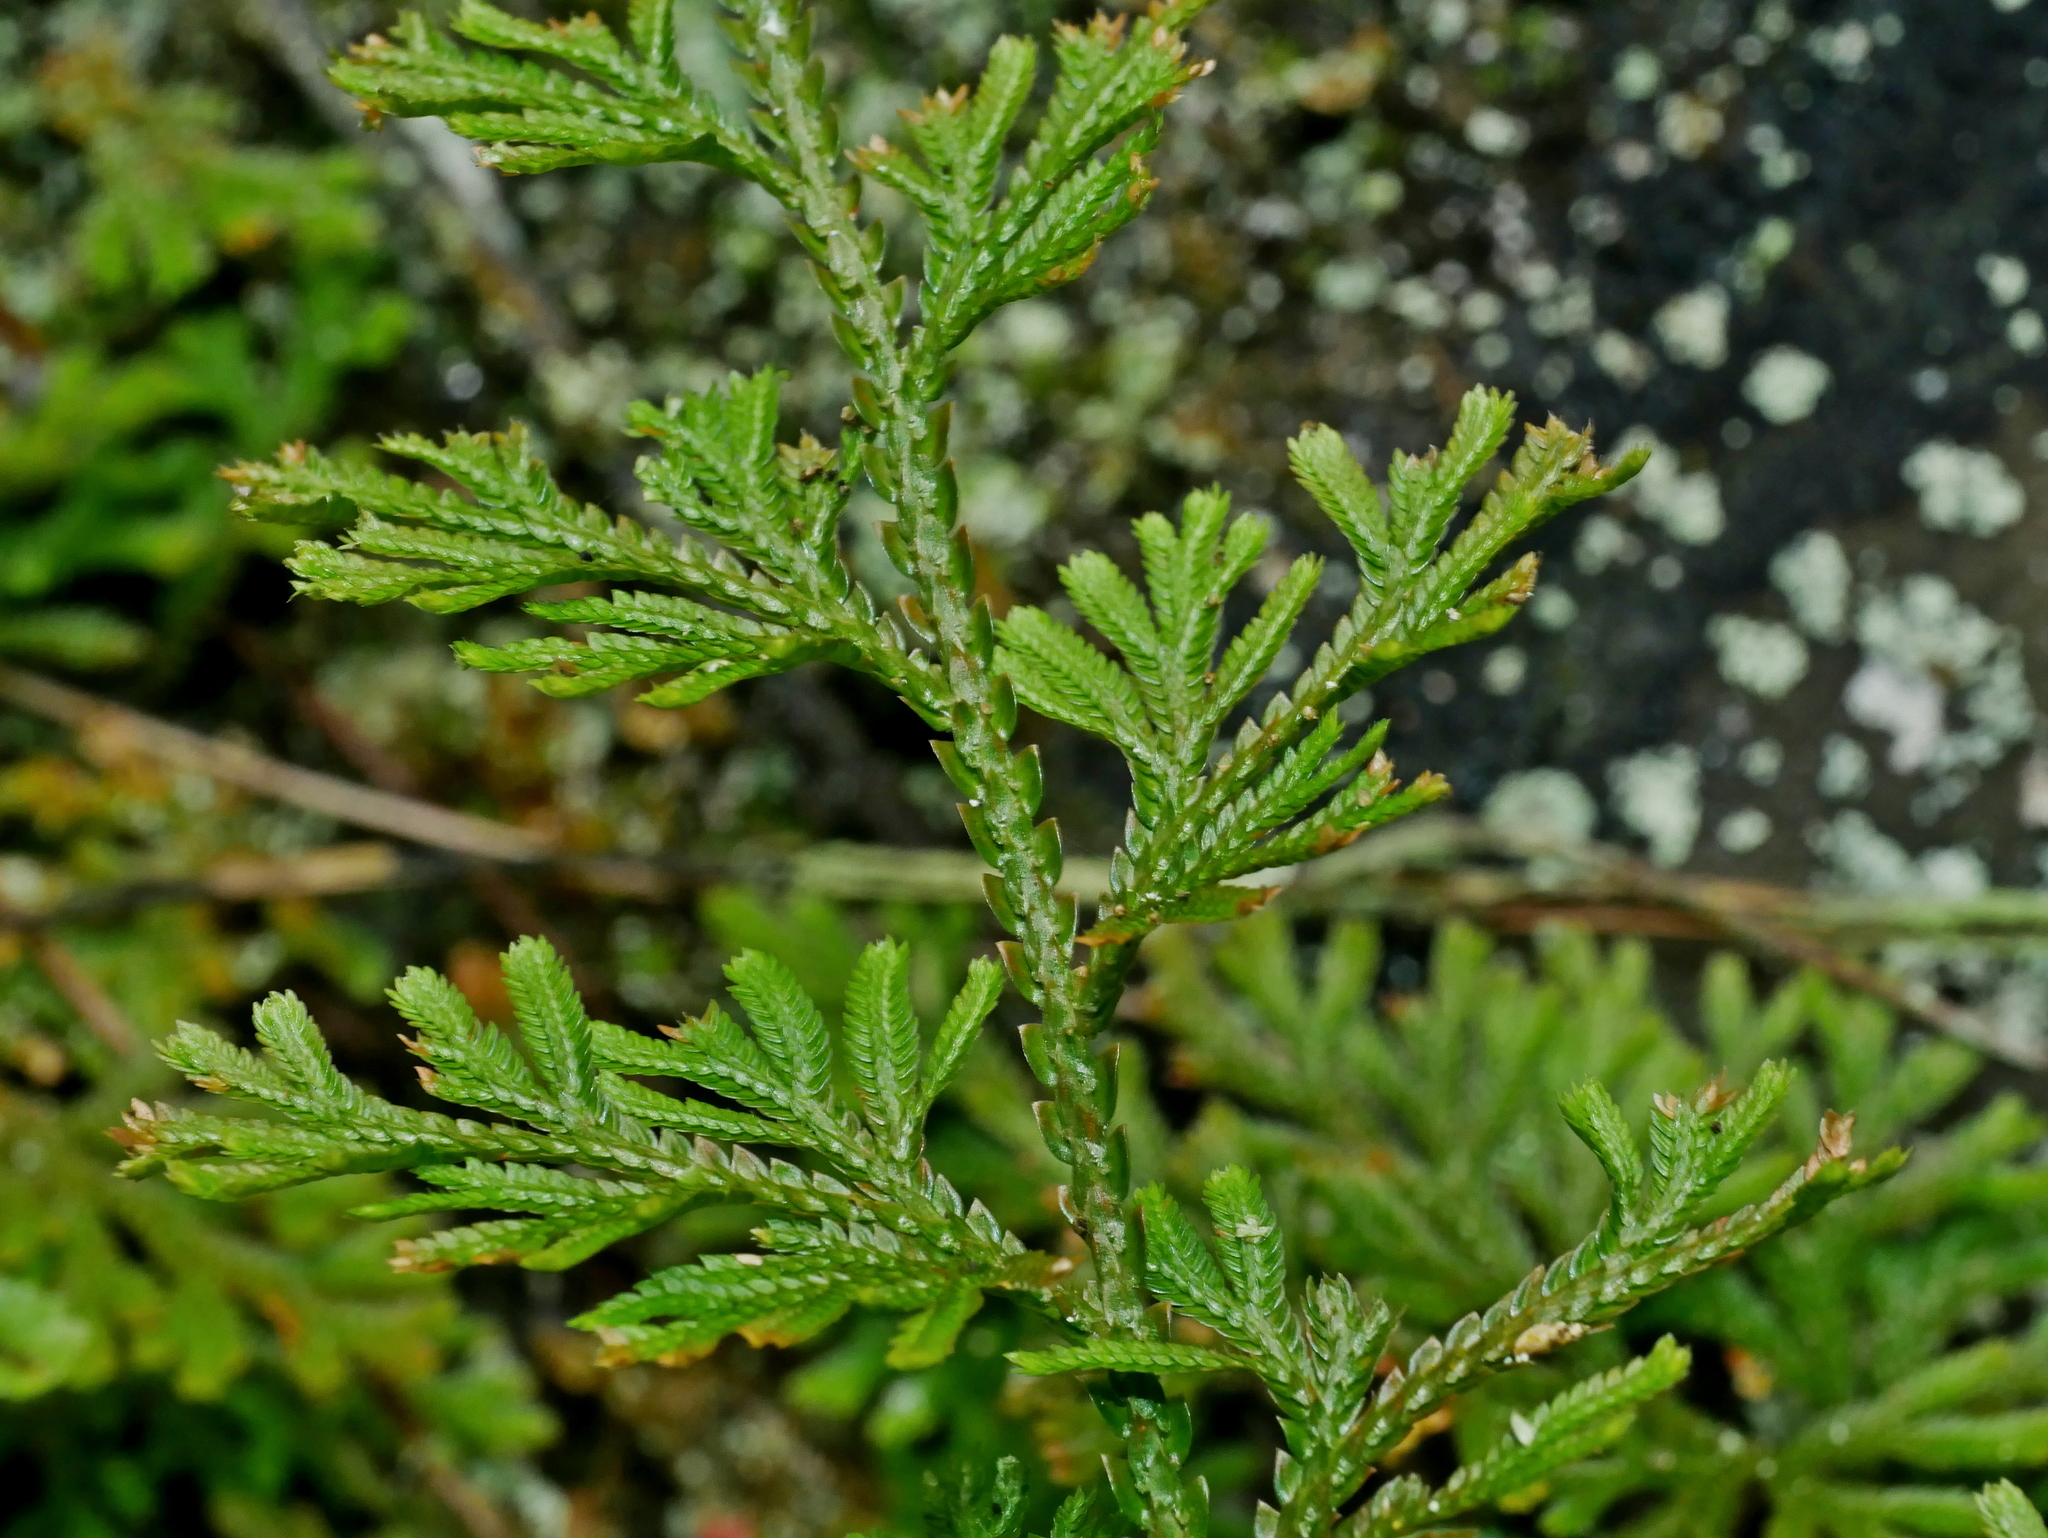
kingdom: Plantae
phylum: Tracheophyta
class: Lycopodiopsida
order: Selaginellales
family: Selaginellaceae
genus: Selaginella
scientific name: Selaginella involvens
